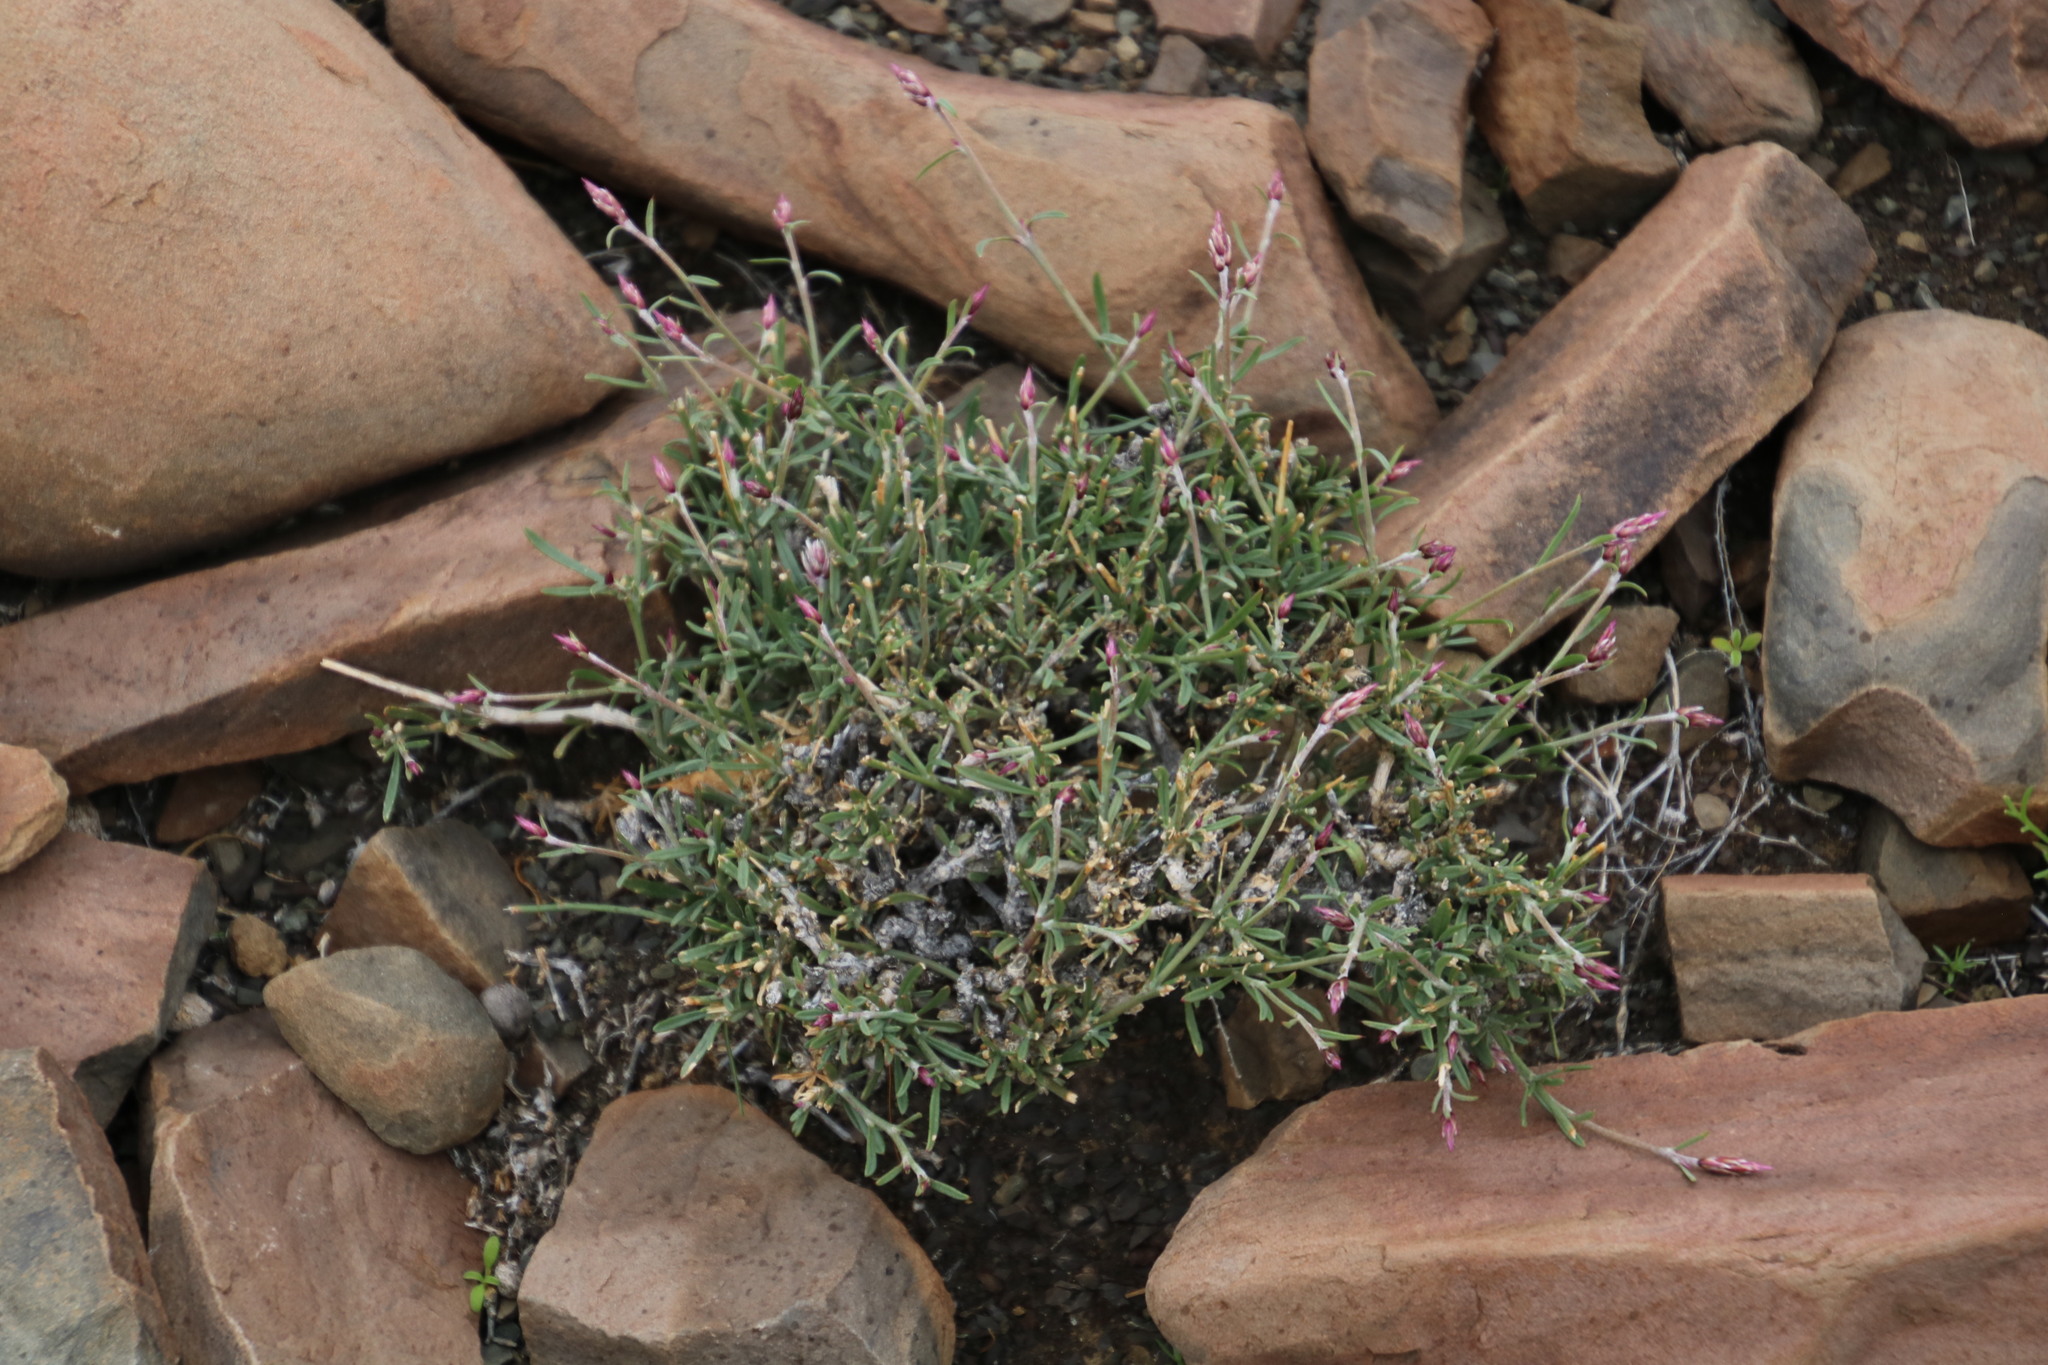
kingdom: Plantae
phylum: Tracheophyta
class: Magnoliopsida
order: Caryophyllales
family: Amaranthaceae
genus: Sericocoma
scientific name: Sericocoma avolans
